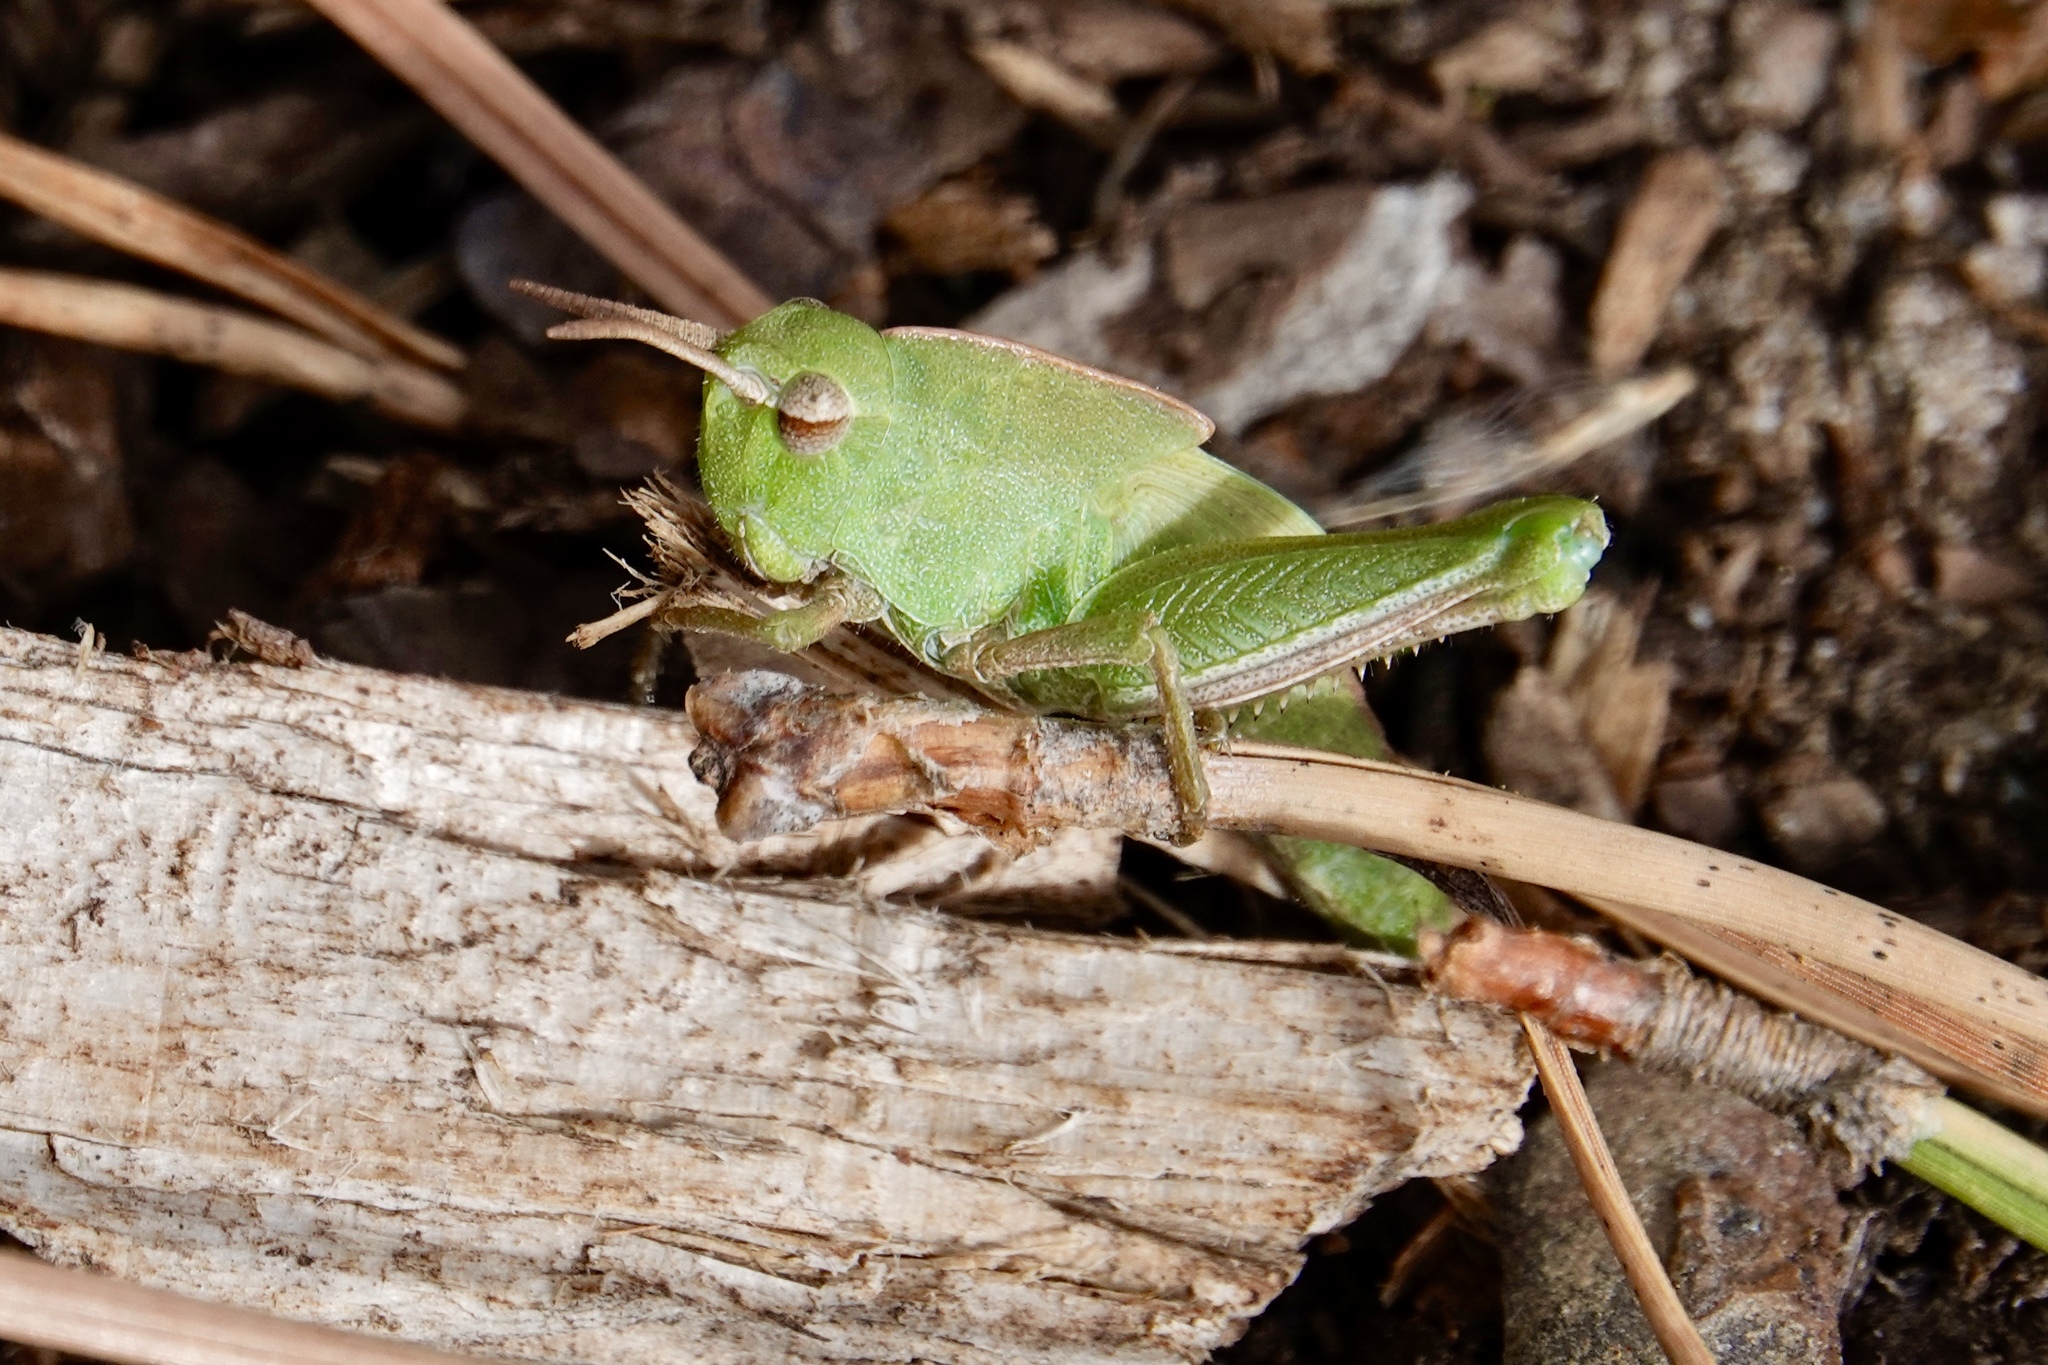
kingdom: Animalia
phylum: Arthropoda
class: Insecta
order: Orthoptera
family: Acrididae
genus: Chortophaga
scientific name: Chortophaga viridifasciata
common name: Green-striped grasshopper
